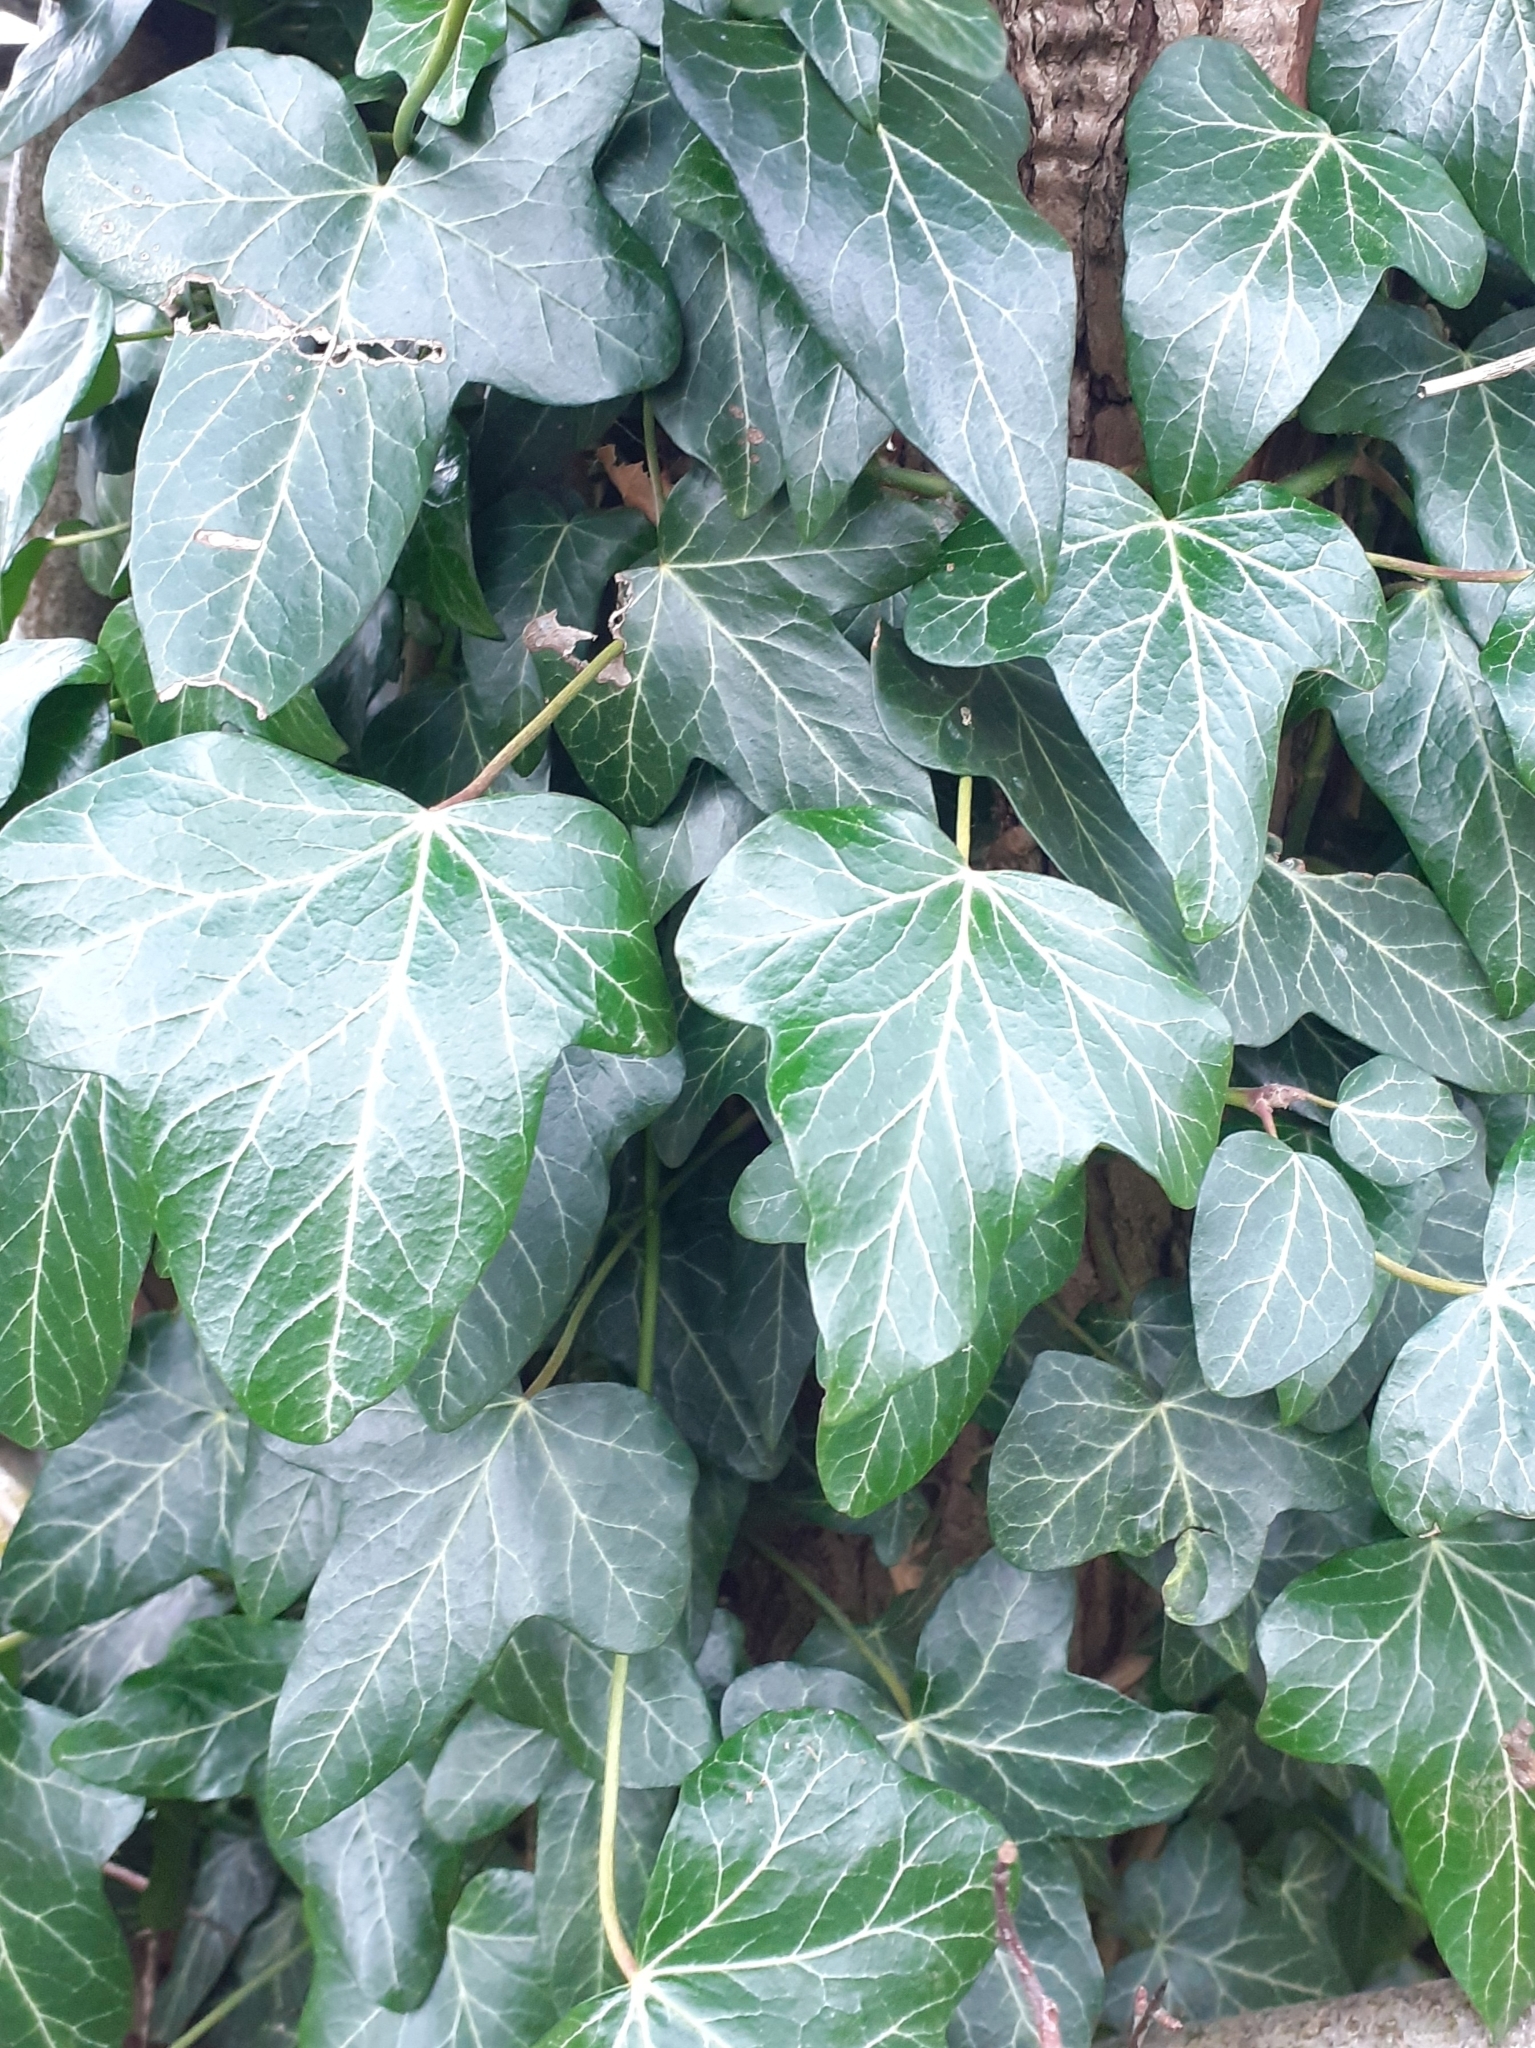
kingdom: Plantae
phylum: Tracheophyta
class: Magnoliopsida
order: Apiales
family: Araliaceae
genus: Hedera
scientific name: Hedera helix
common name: Ivy
